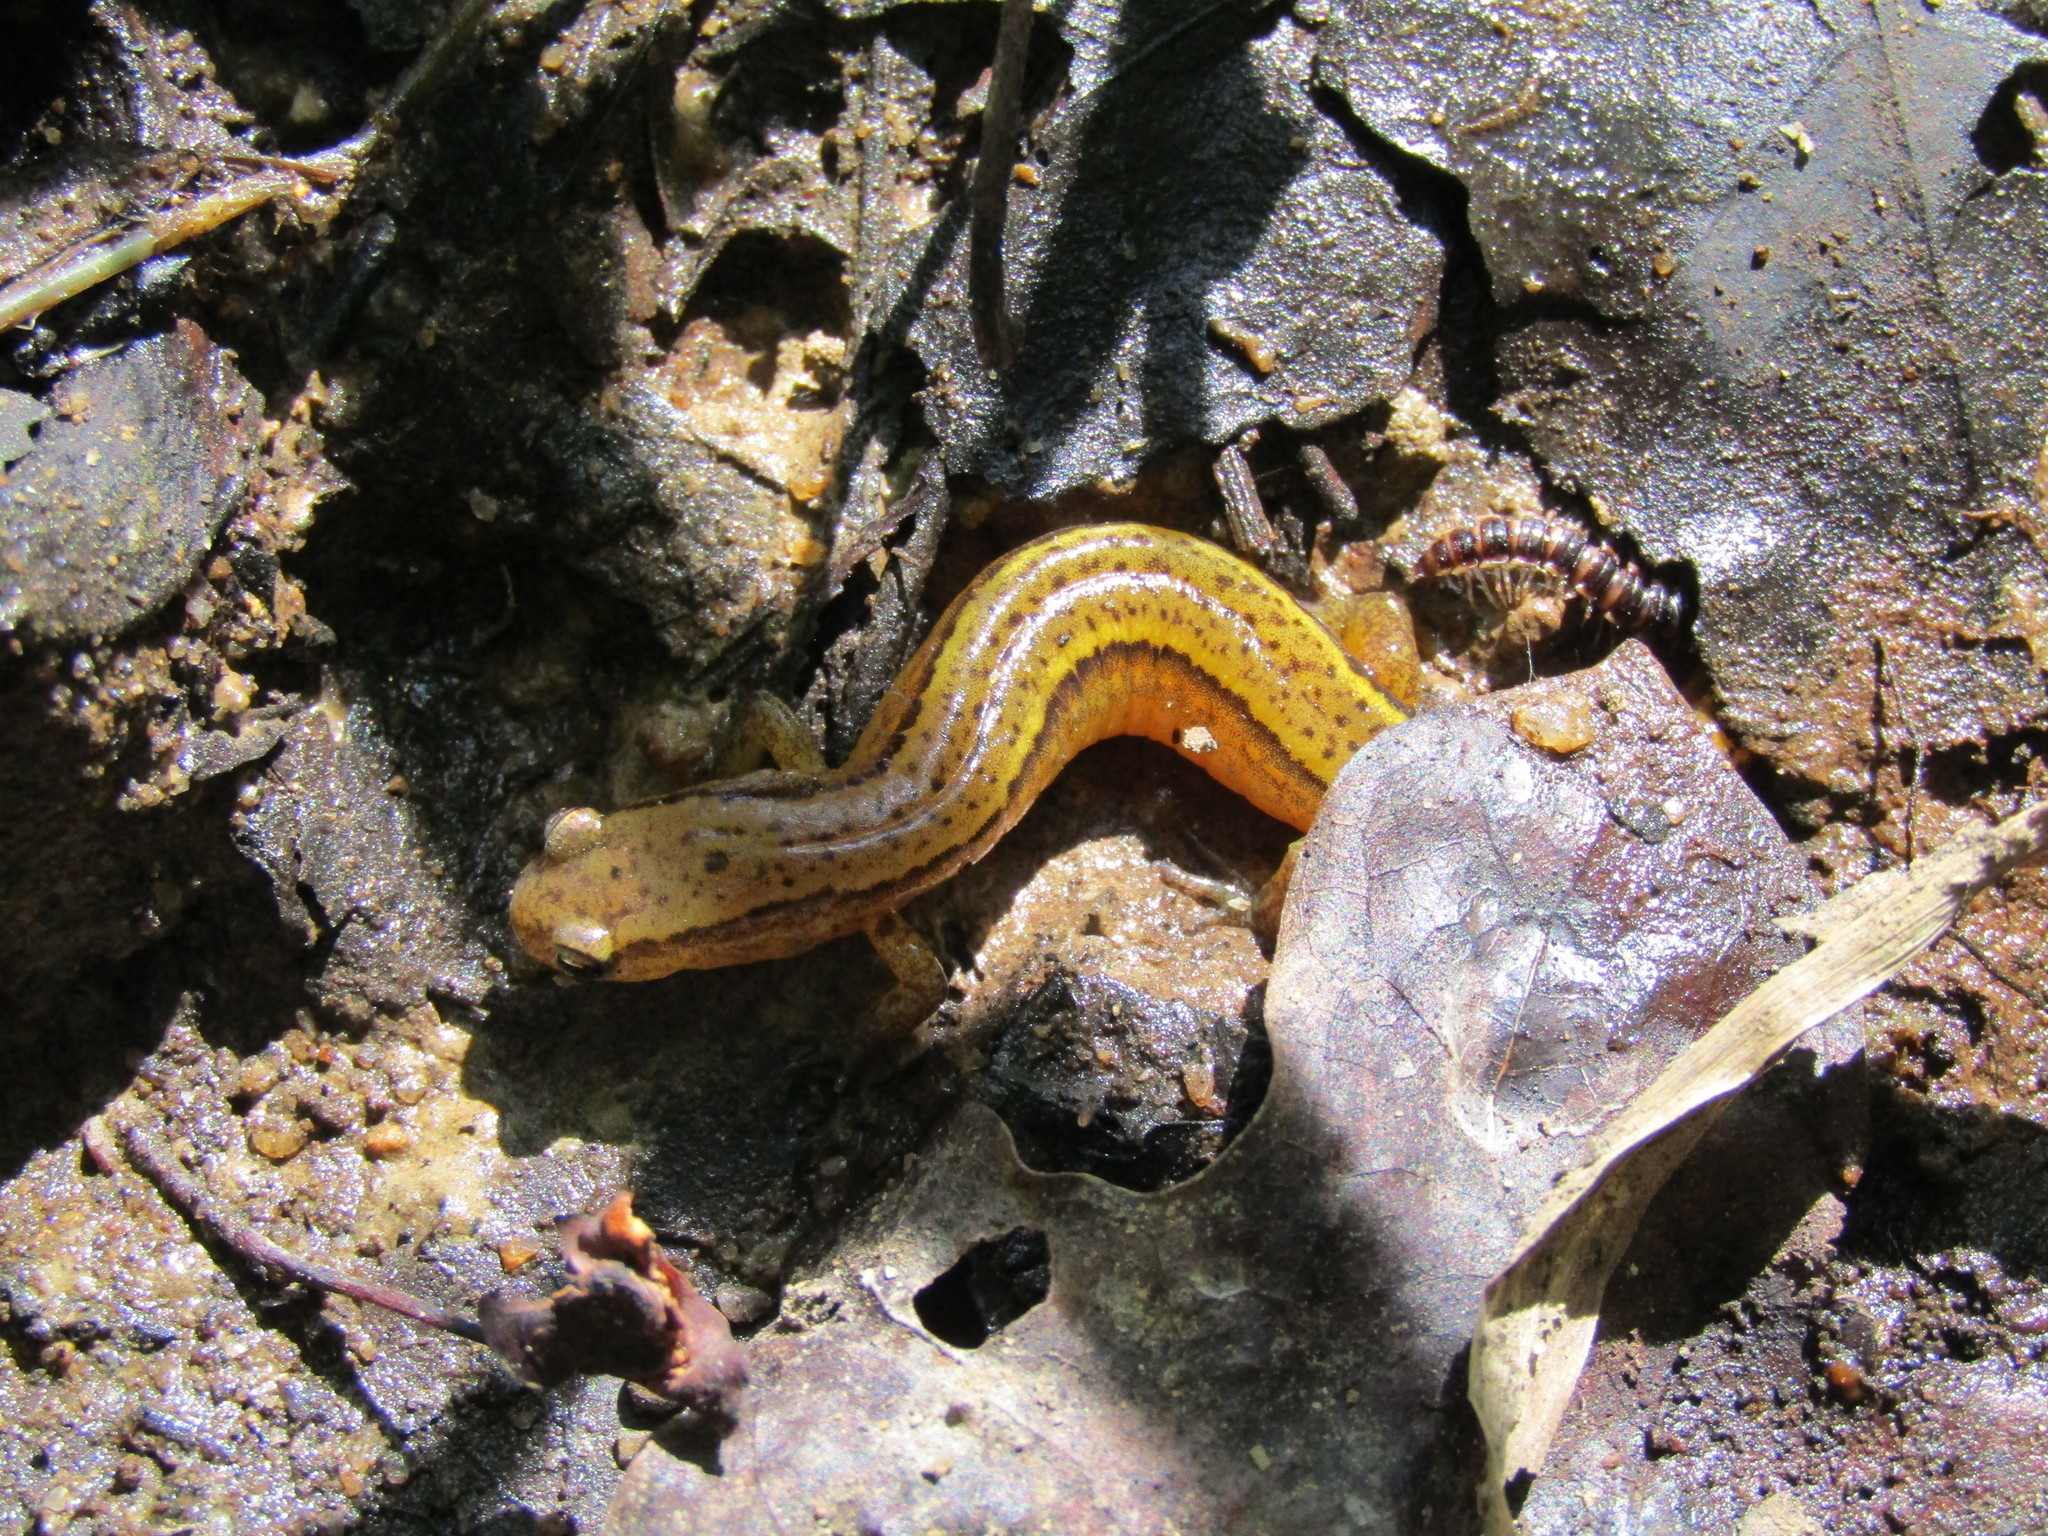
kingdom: Animalia
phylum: Chordata
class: Amphibia
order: Caudata
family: Plethodontidae
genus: Eurycea
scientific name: Eurycea cirrigera
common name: Southern two-lined salamander
